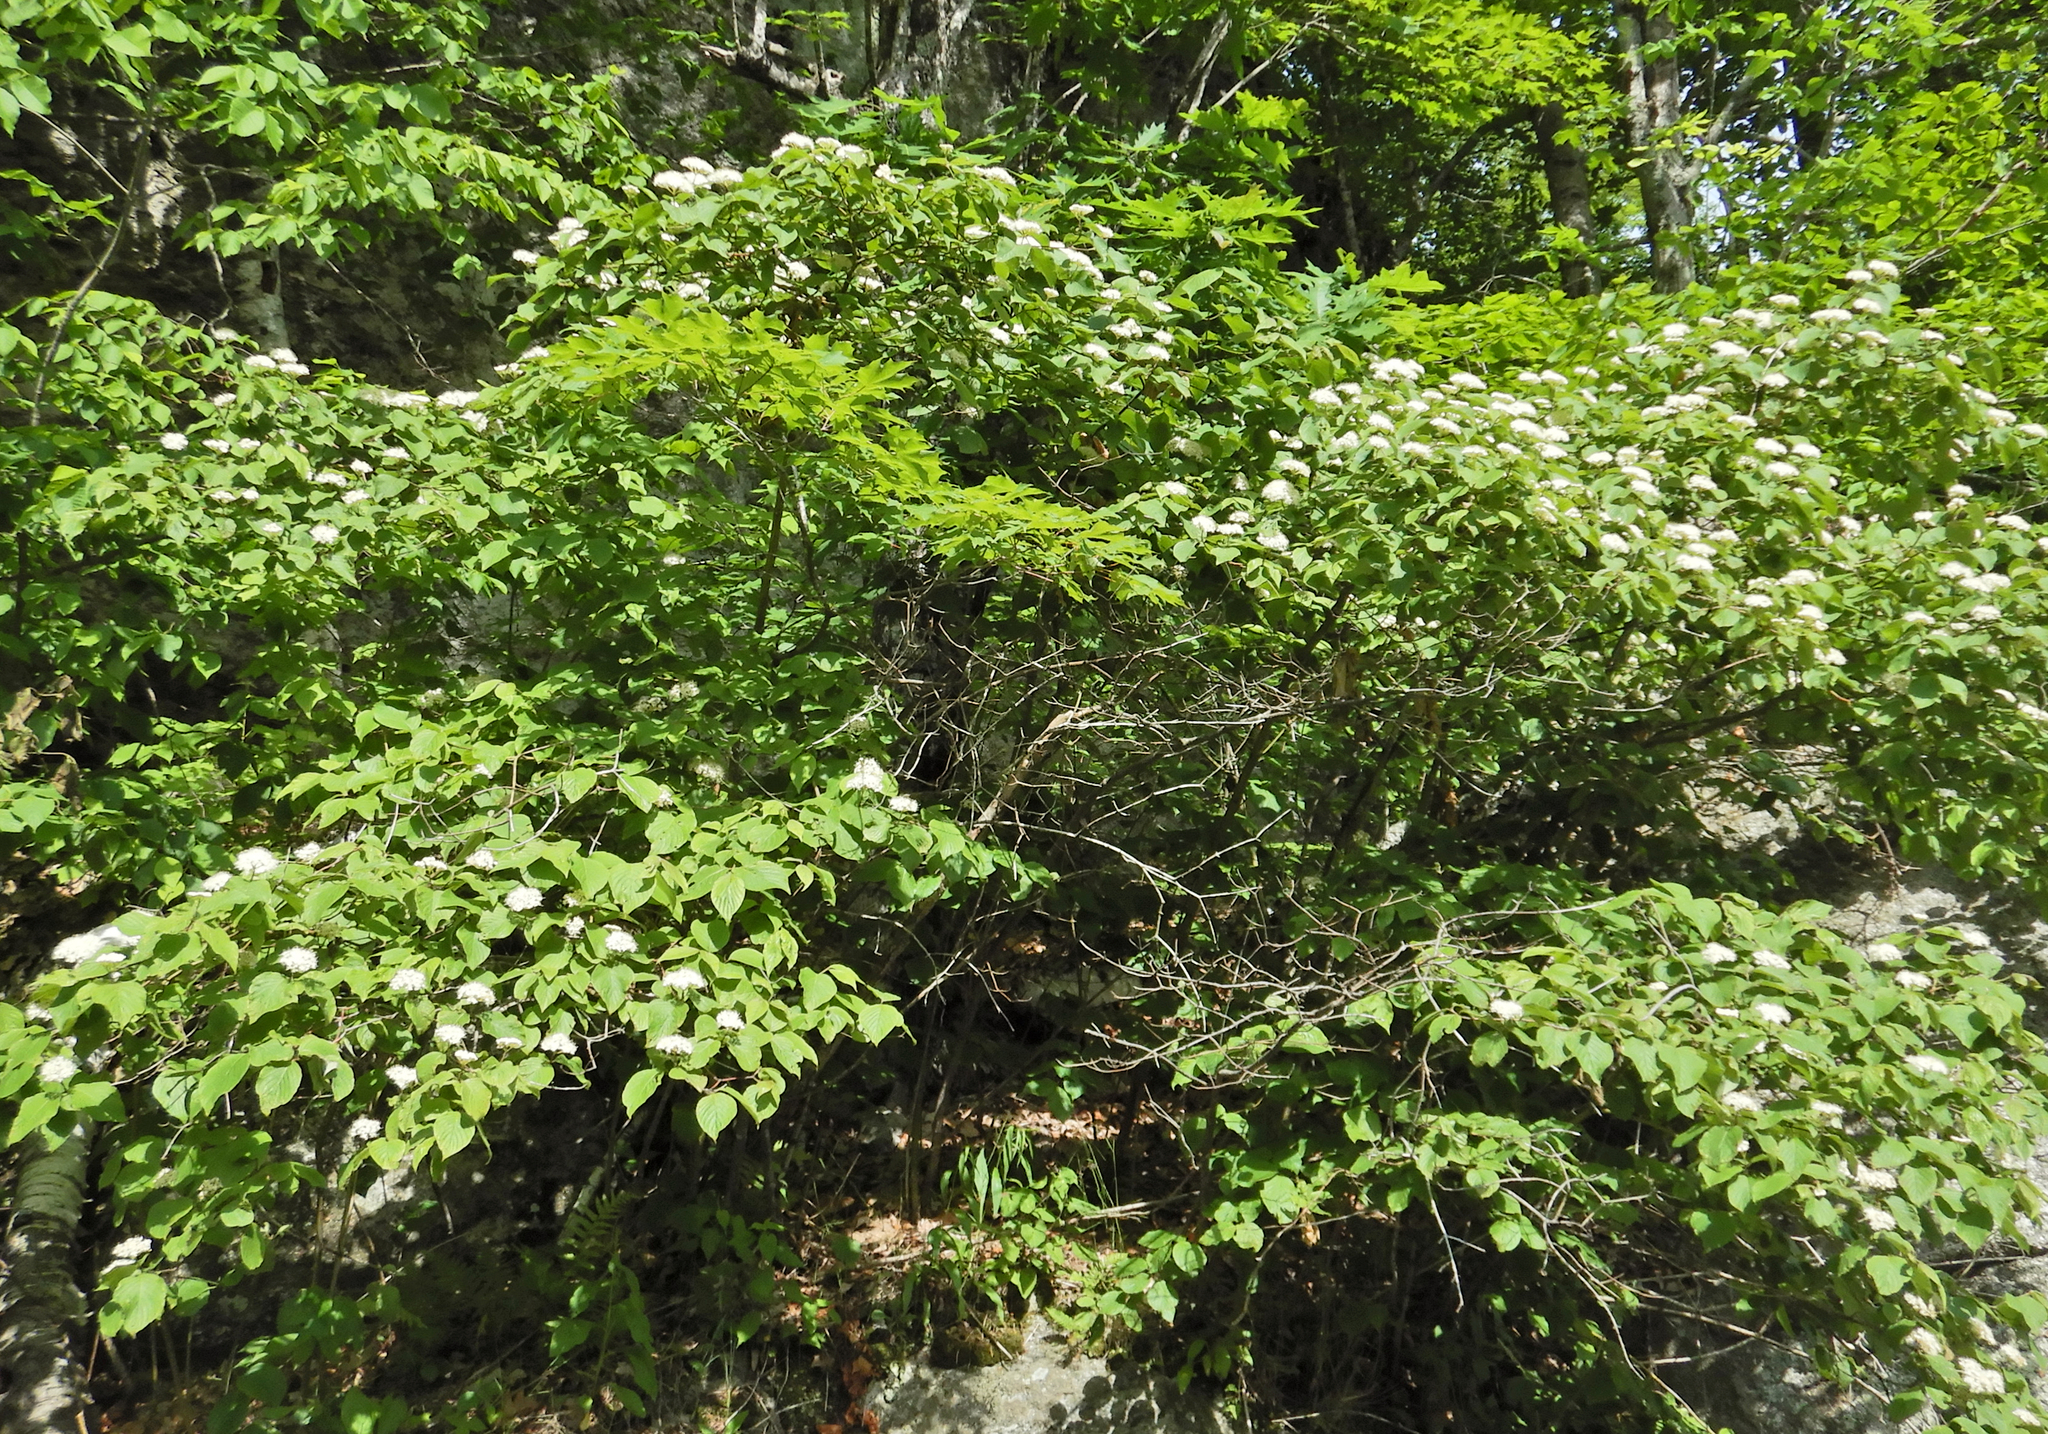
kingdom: Plantae
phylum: Tracheophyta
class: Magnoliopsida
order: Cornales
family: Cornaceae
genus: Cornus
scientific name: Cornus rugosa
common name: Round-leaf dogwood
